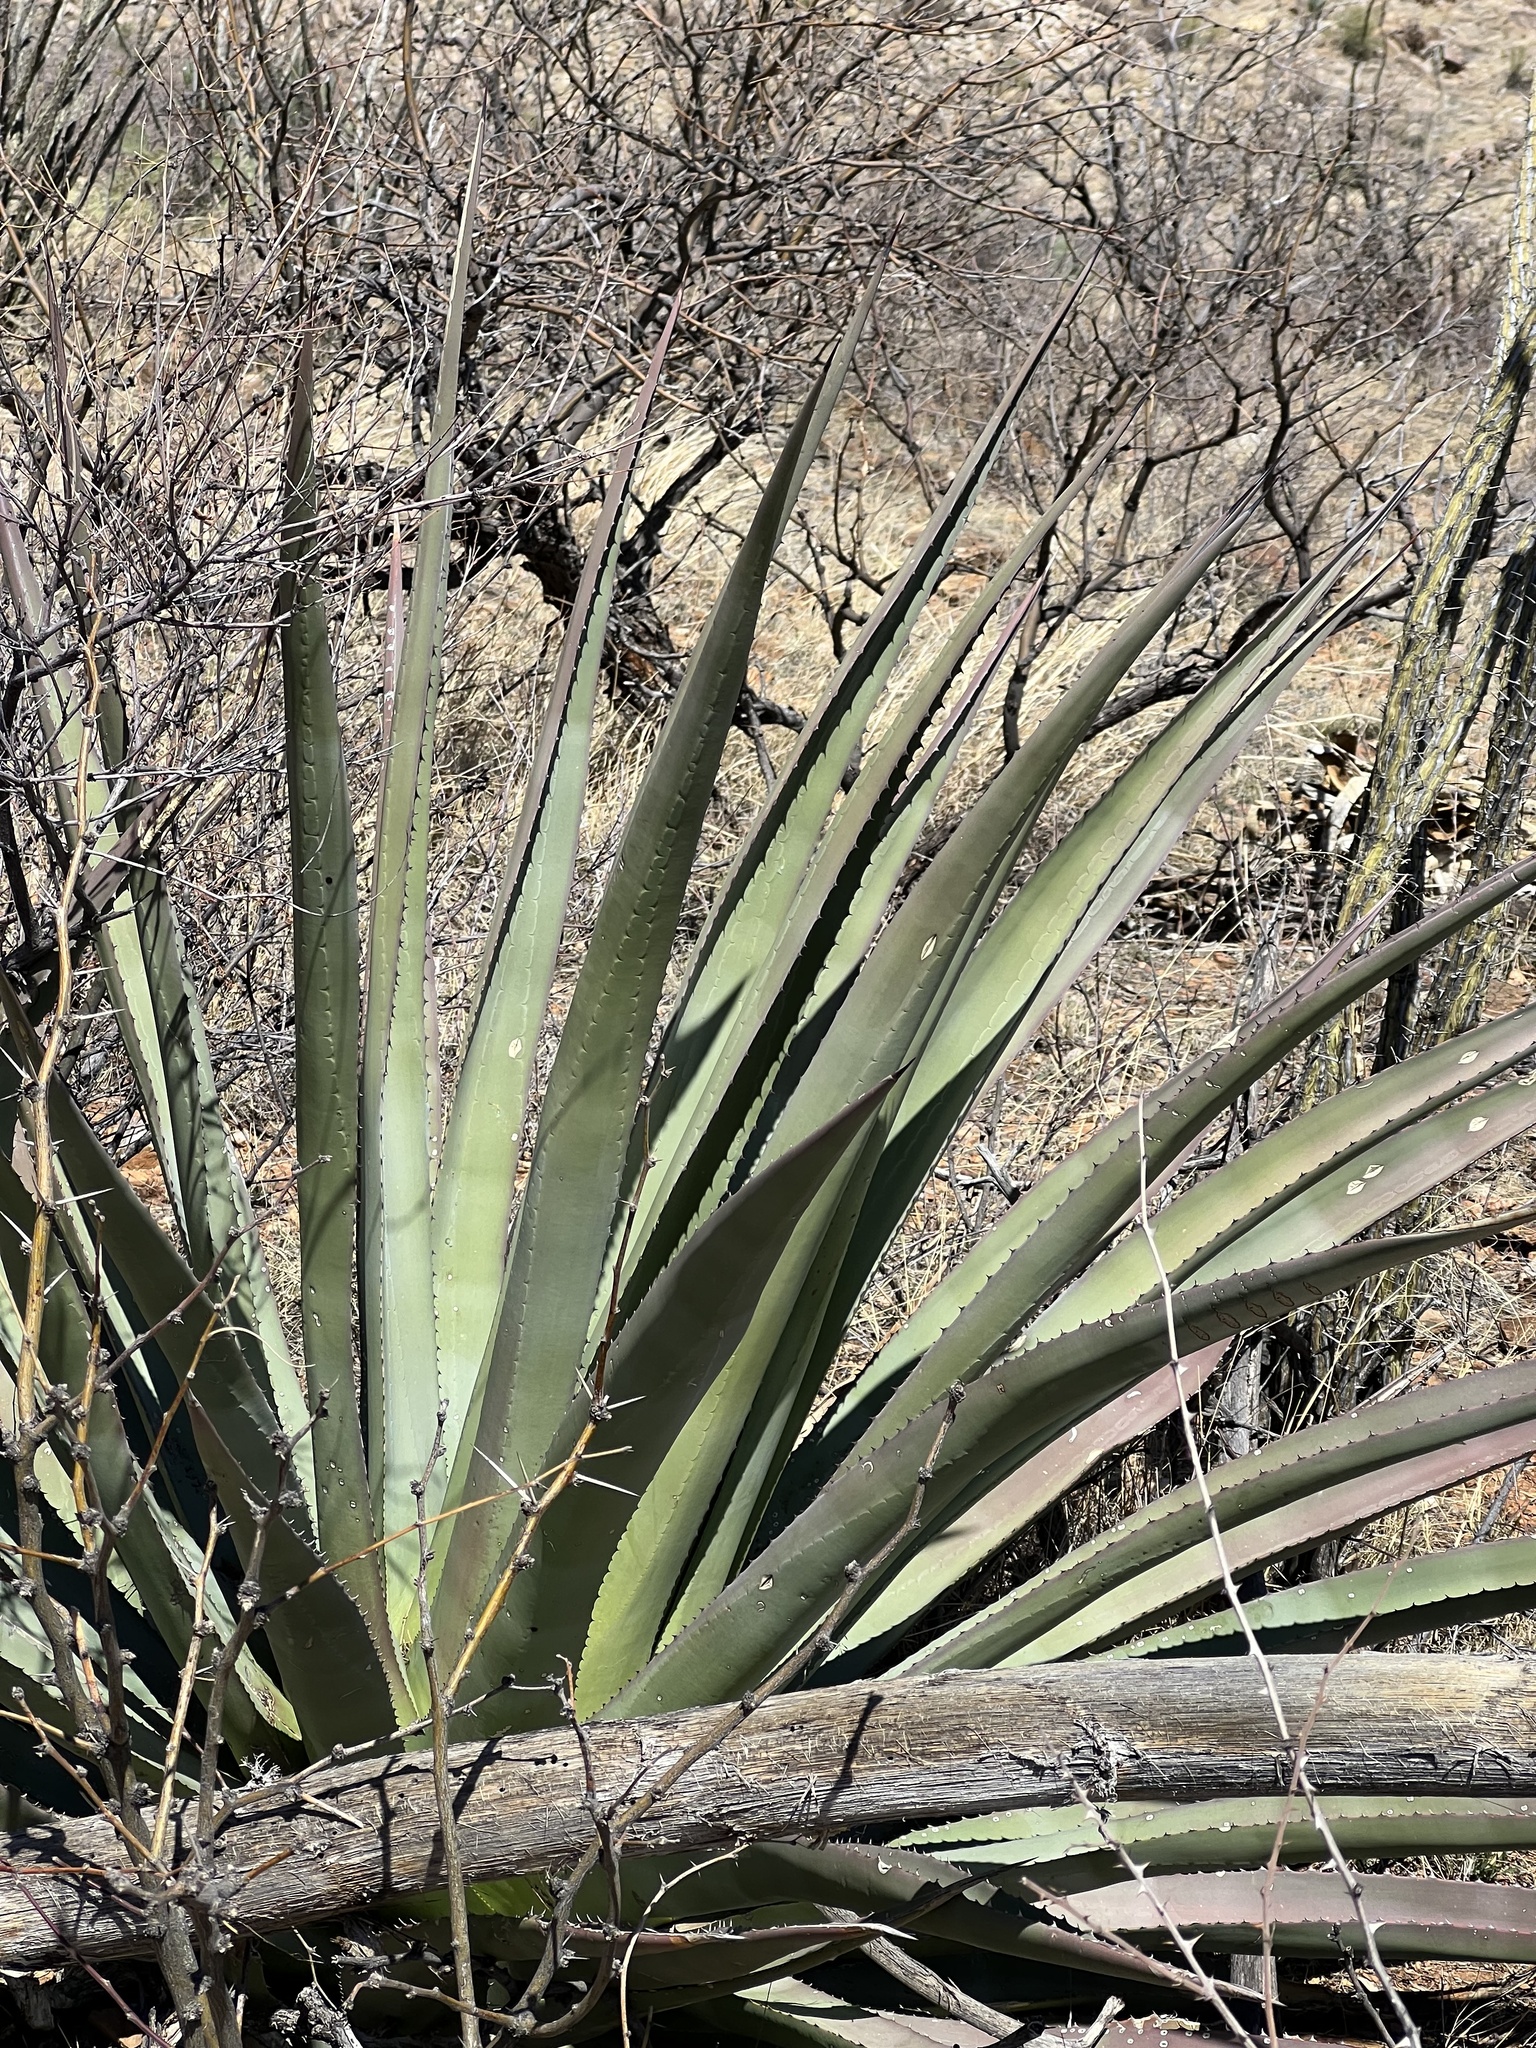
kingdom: Plantae
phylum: Tracheophyta
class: Liliopsida
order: Asparagales
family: Asparagaceae
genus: Agave
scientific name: Agave palmeri
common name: Palmer agave
